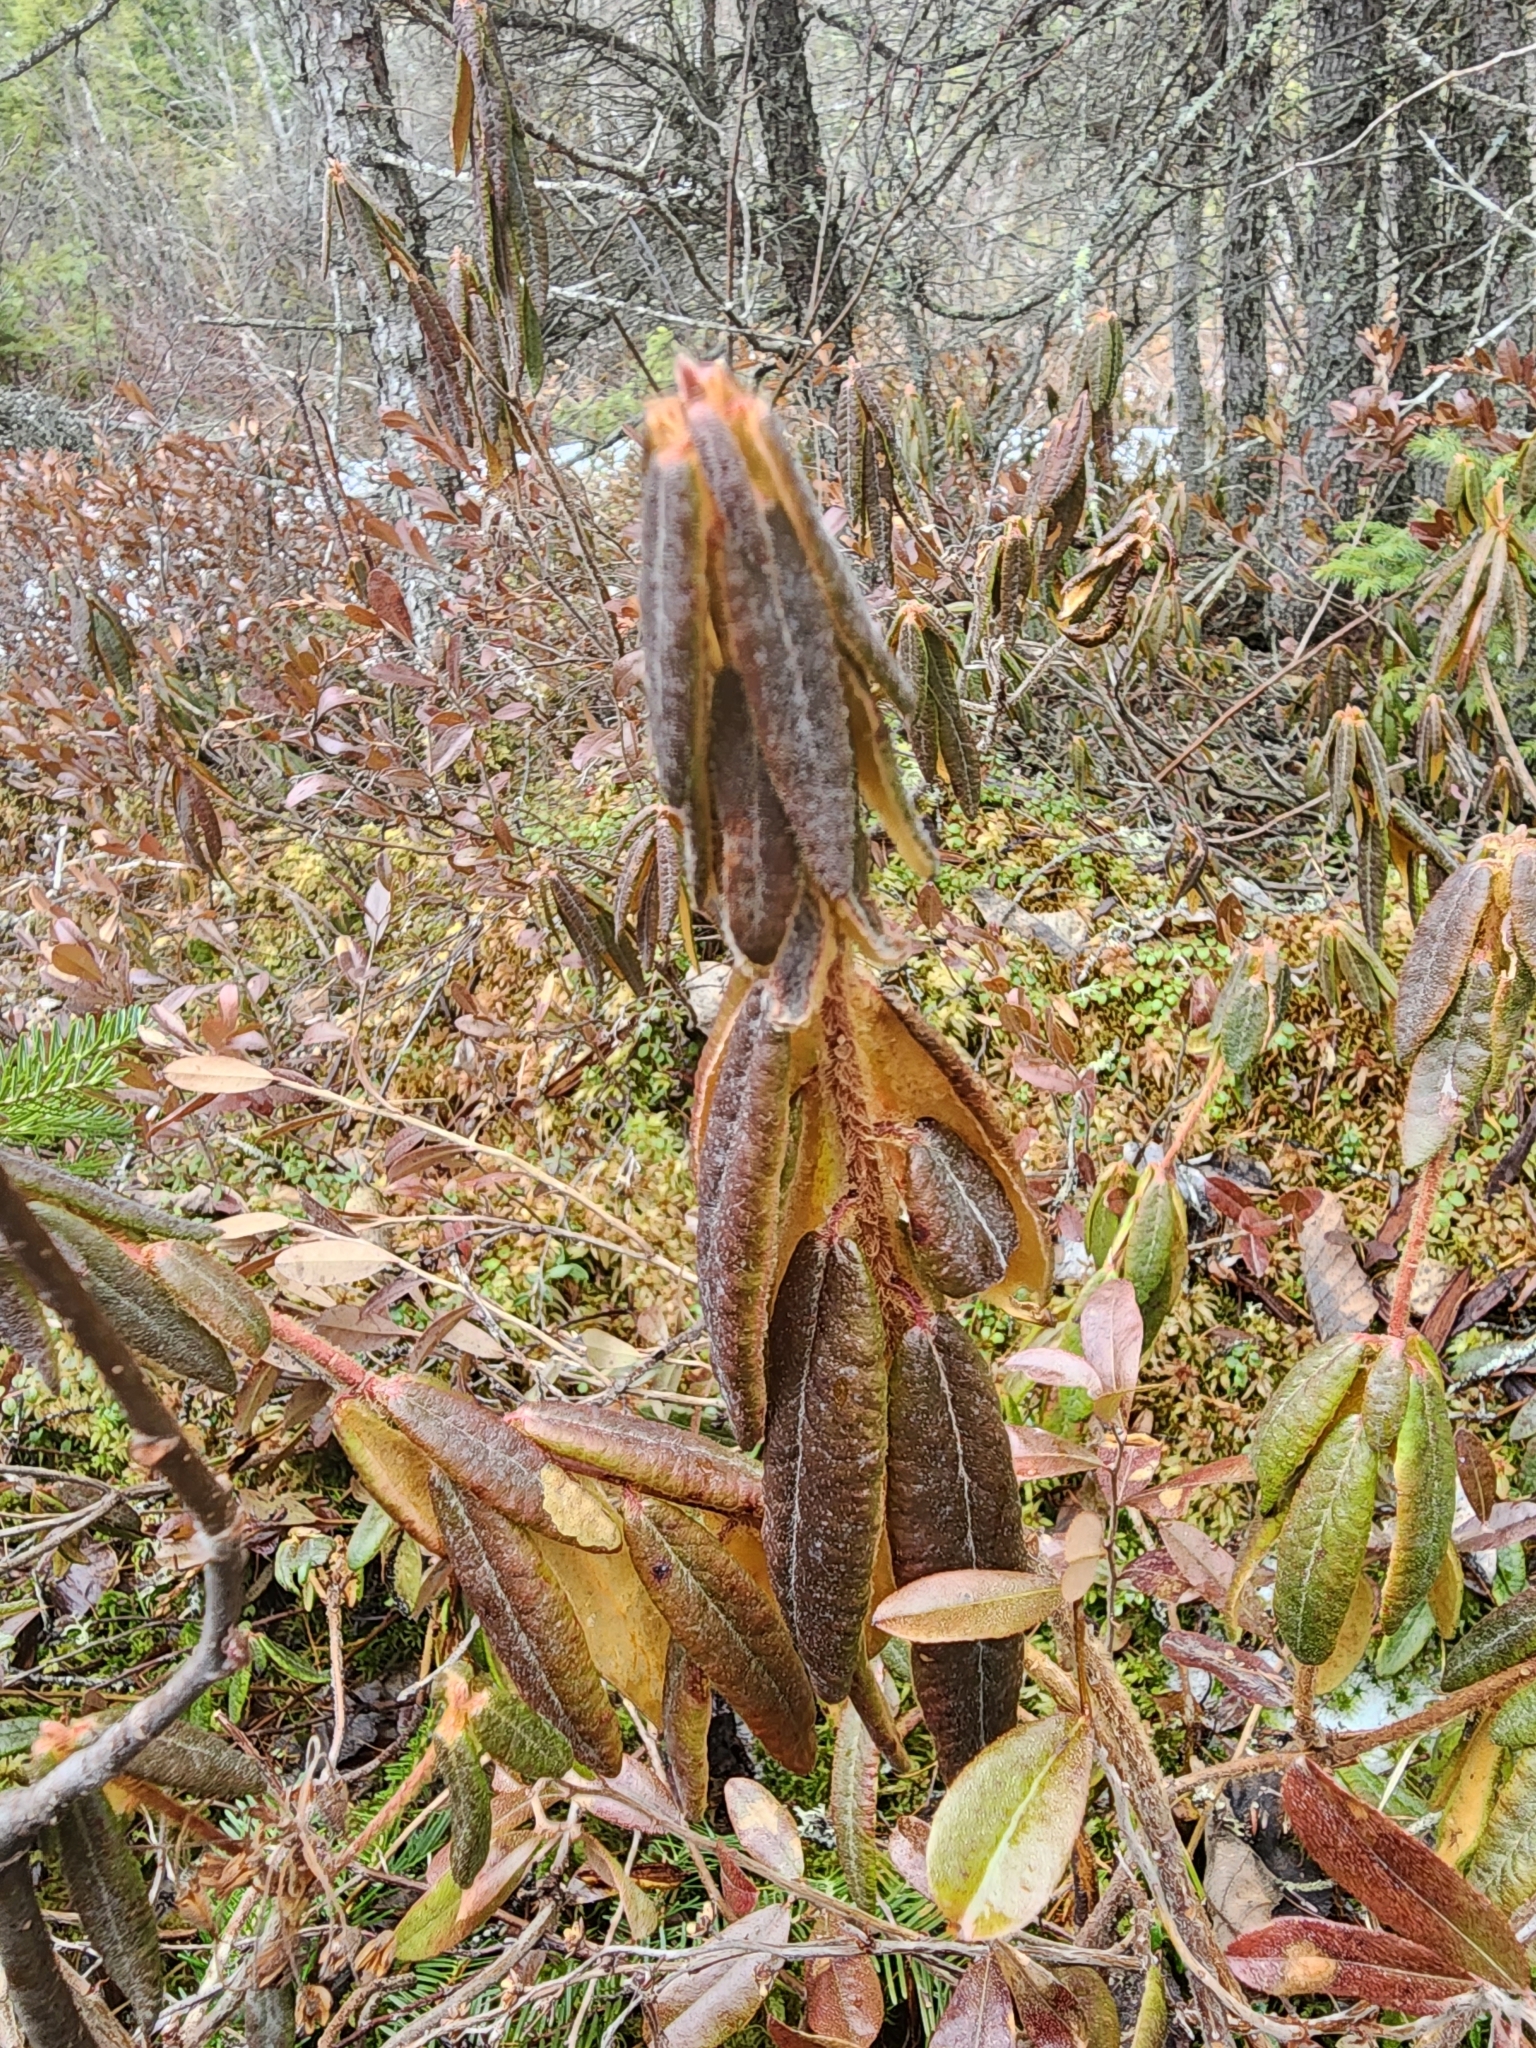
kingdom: Plantae
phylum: Tracheophyta
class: Magnoliopsida
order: Ericales
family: Ericaceae
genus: Rhododendron
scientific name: Rhododendron groenlandicum
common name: Bog labrador tea
